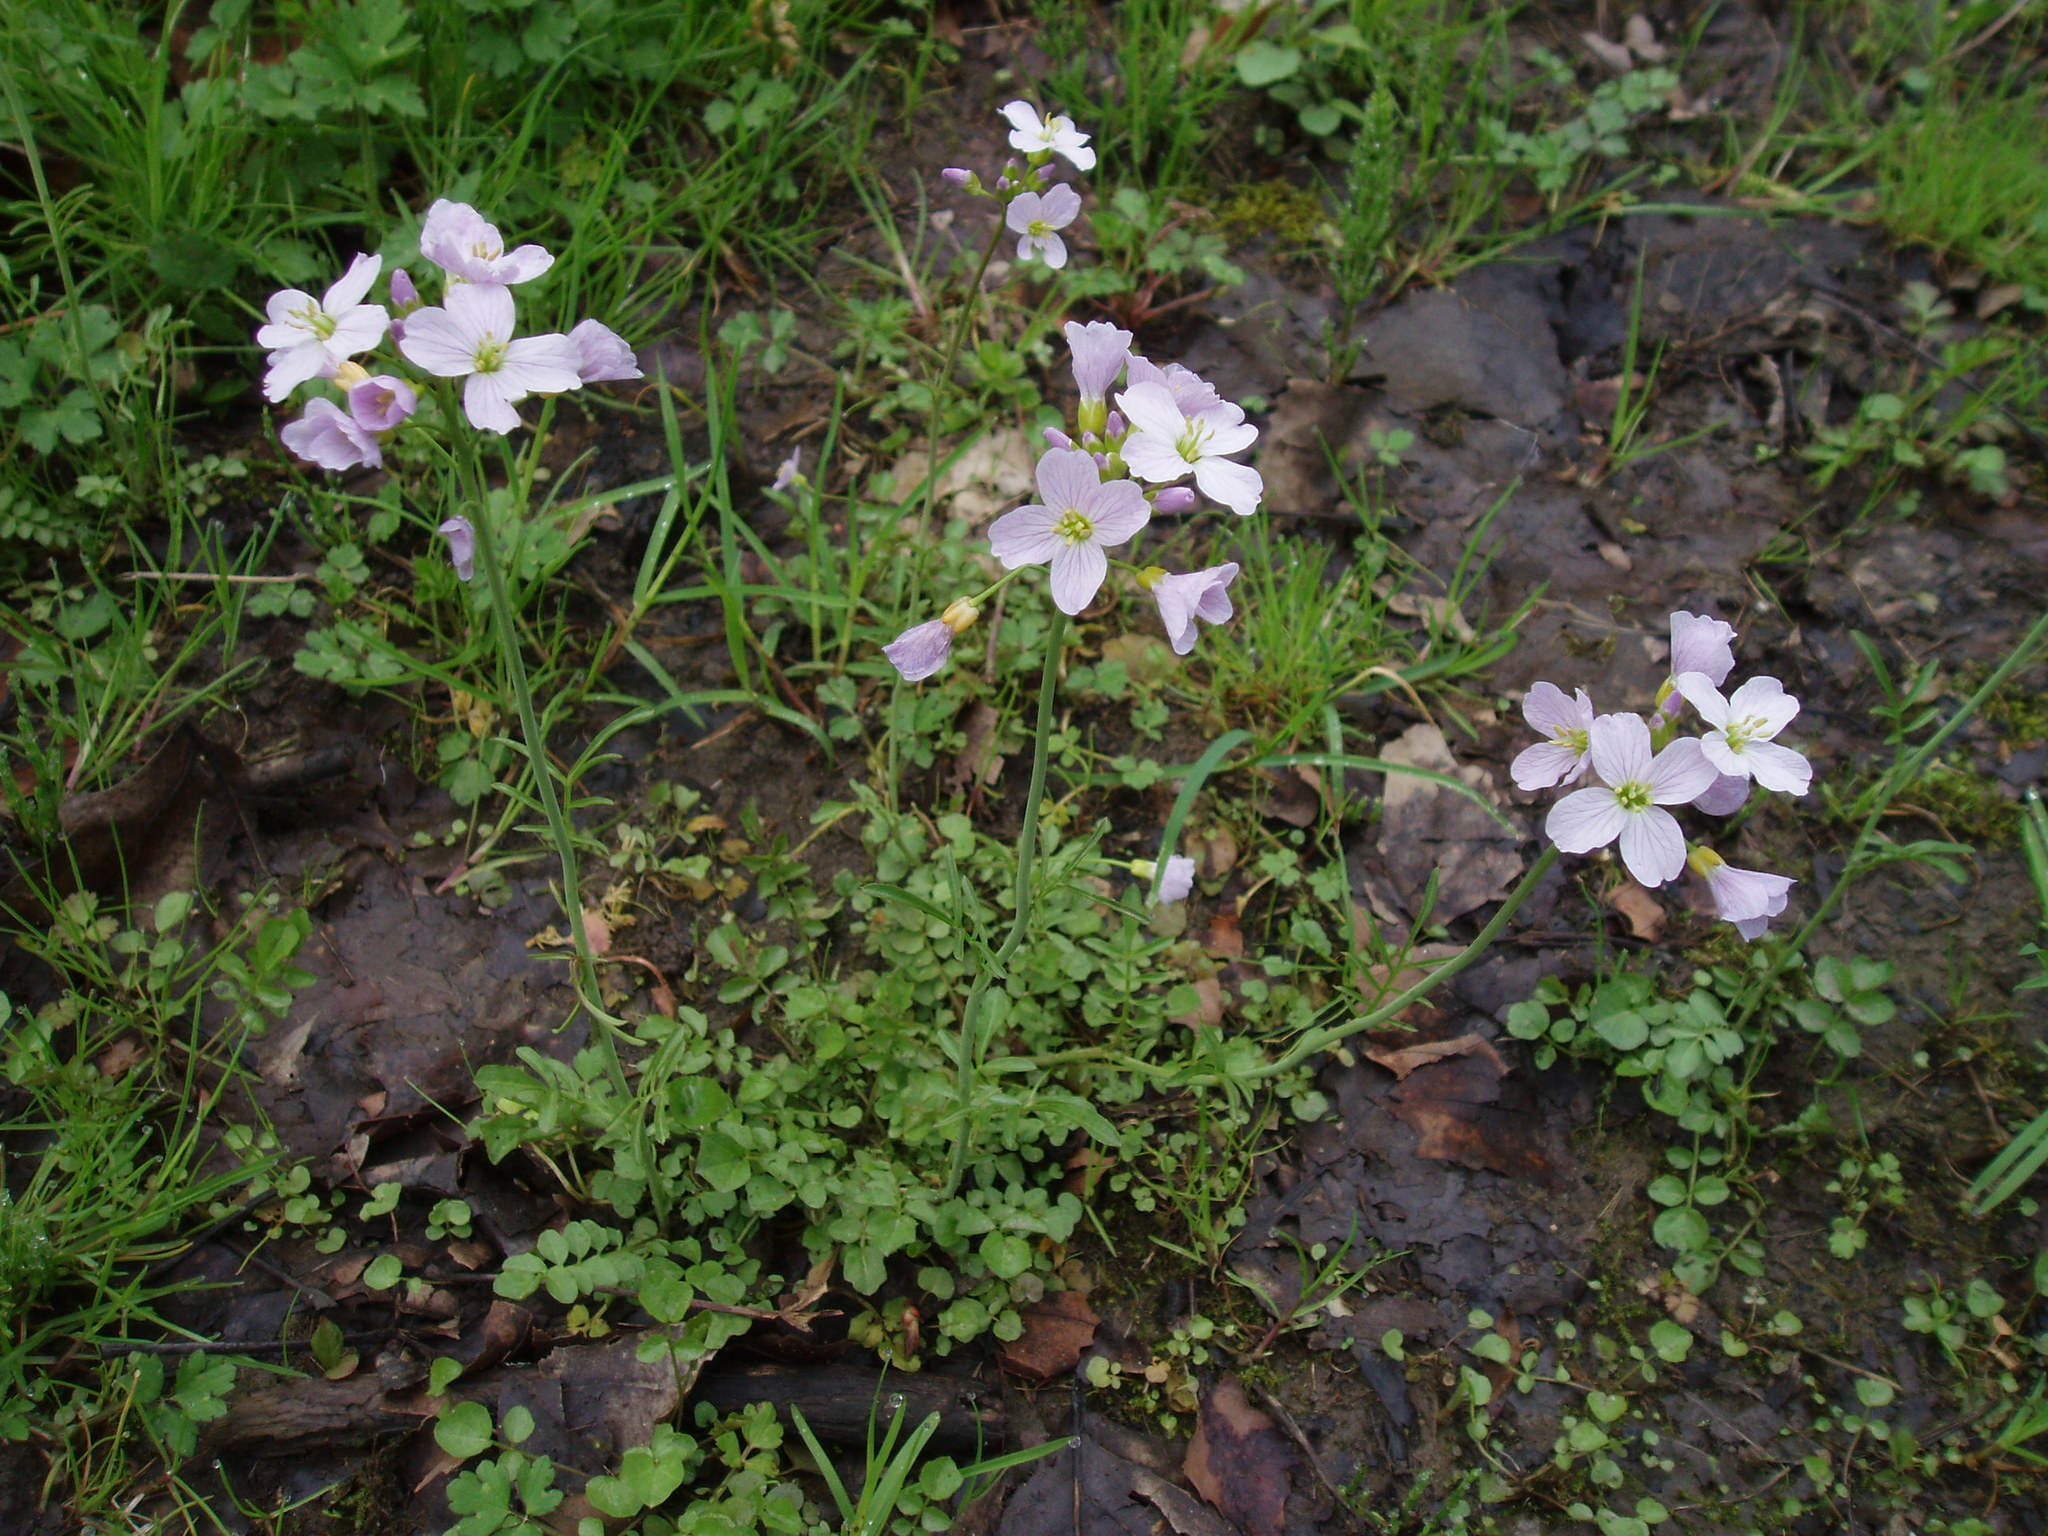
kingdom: Plantae
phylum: Tracheophyta
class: Magnoliopsida
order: Brassicales
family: Brassicaceae
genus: Cardamine
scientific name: Cardamine pratensis
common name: Cuckoo flower
